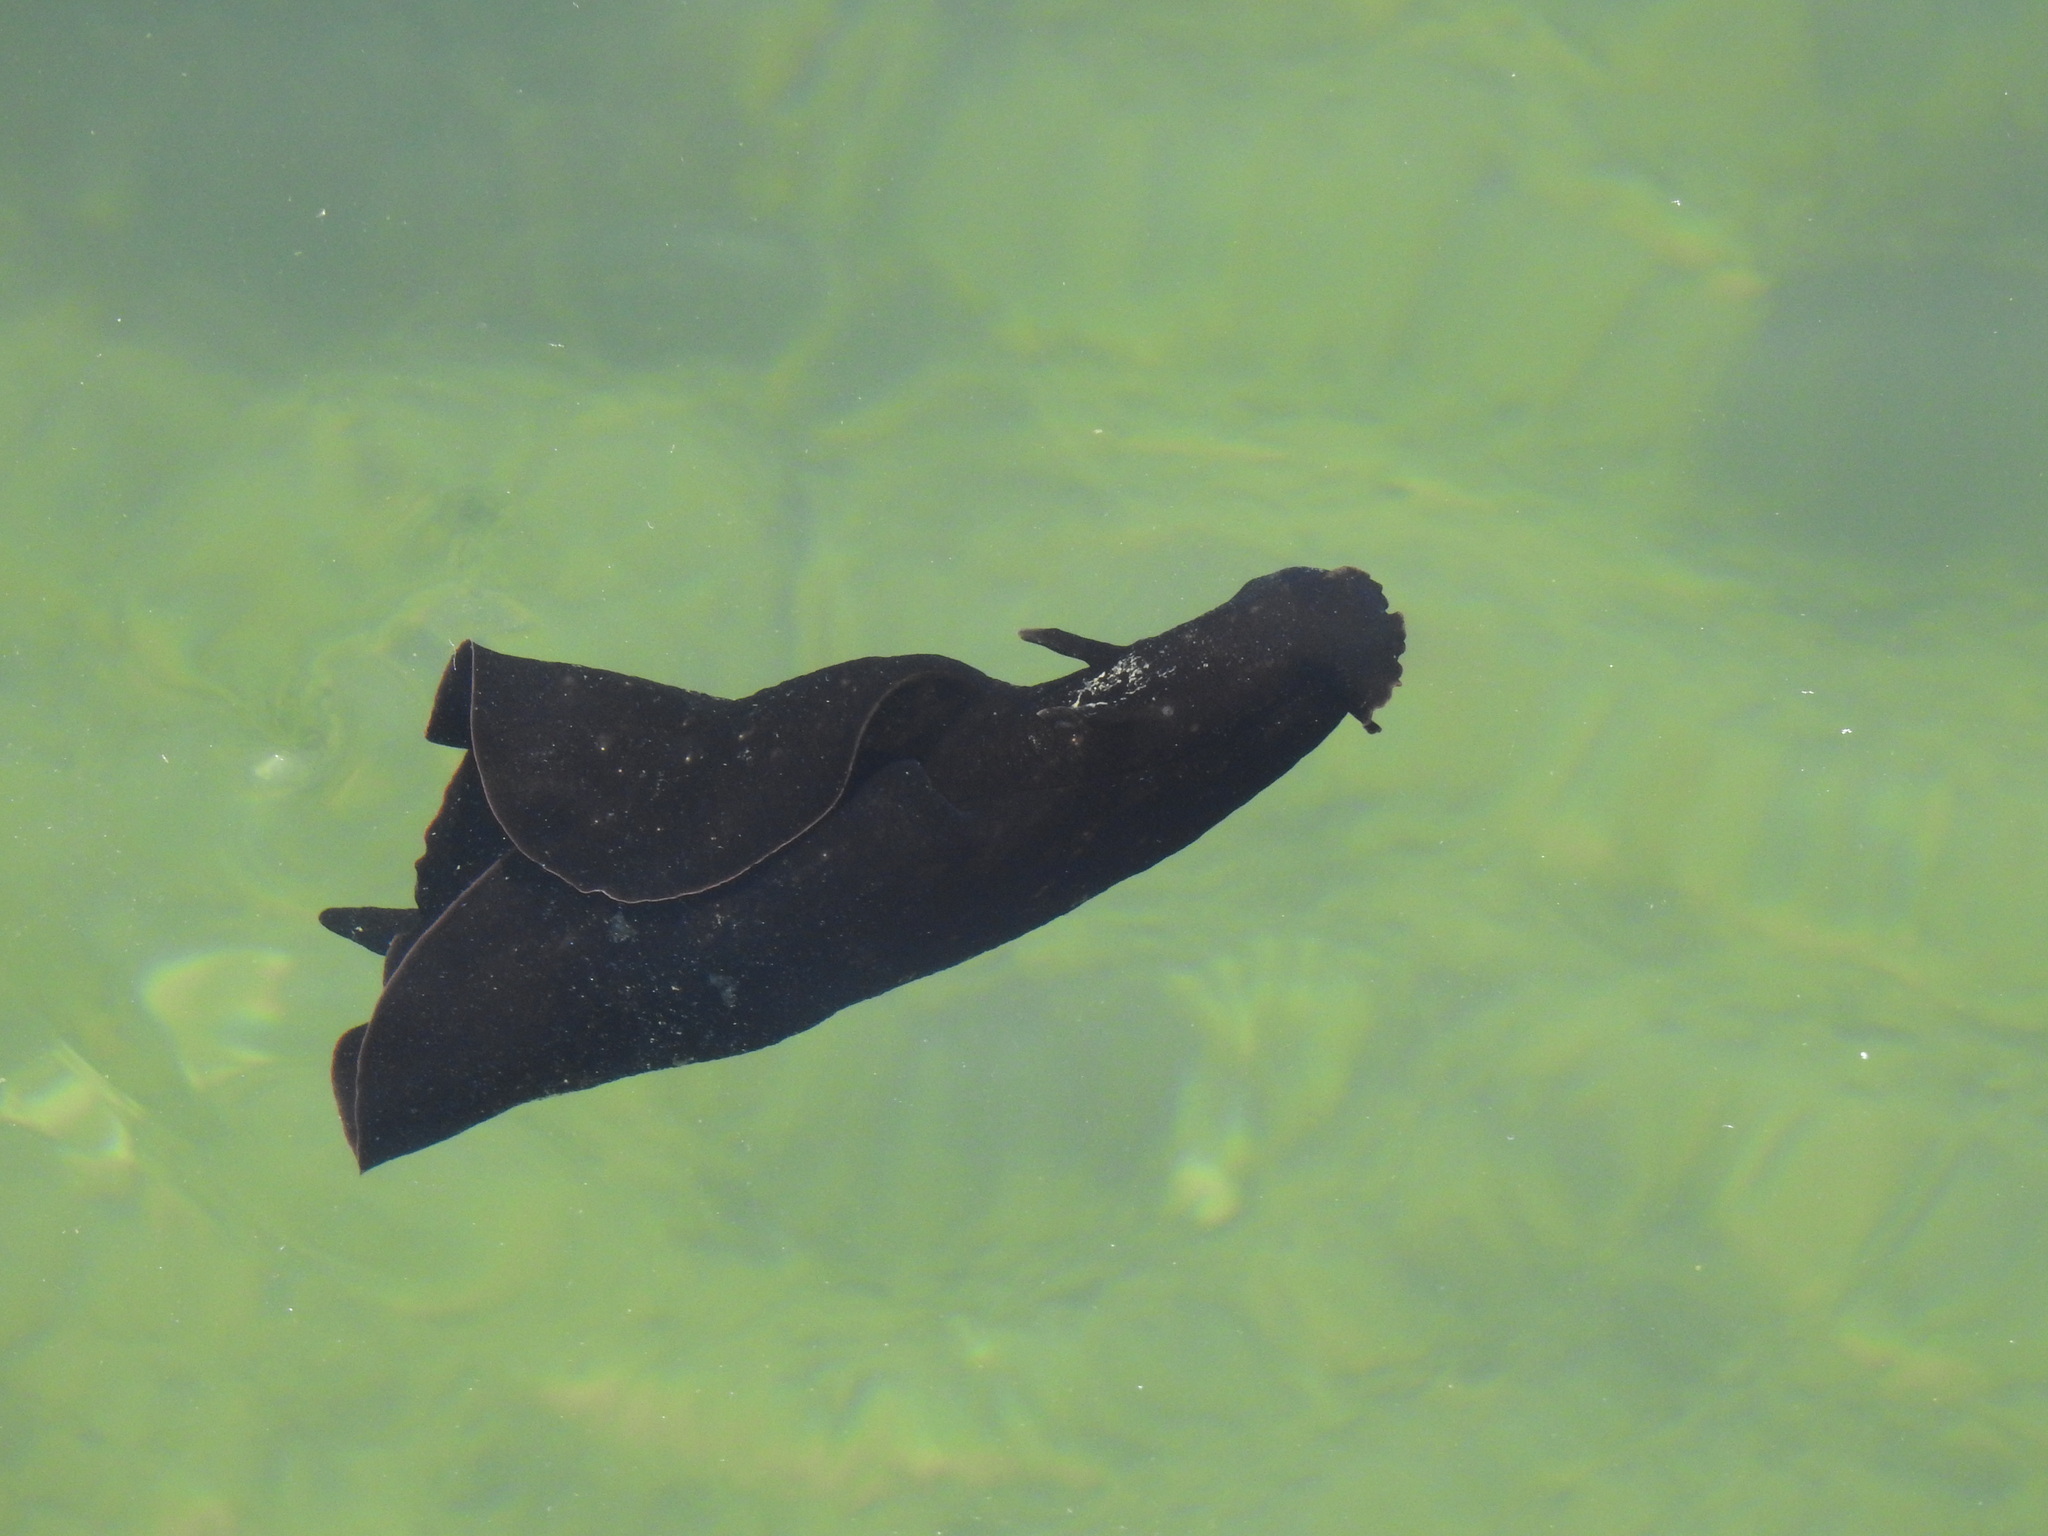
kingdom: Animalia
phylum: Mollusca
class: Gastropoda
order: Aplysiida
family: Aplysiidae
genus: Aplysia
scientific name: Aplysia fasciata
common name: Banded sea hare
